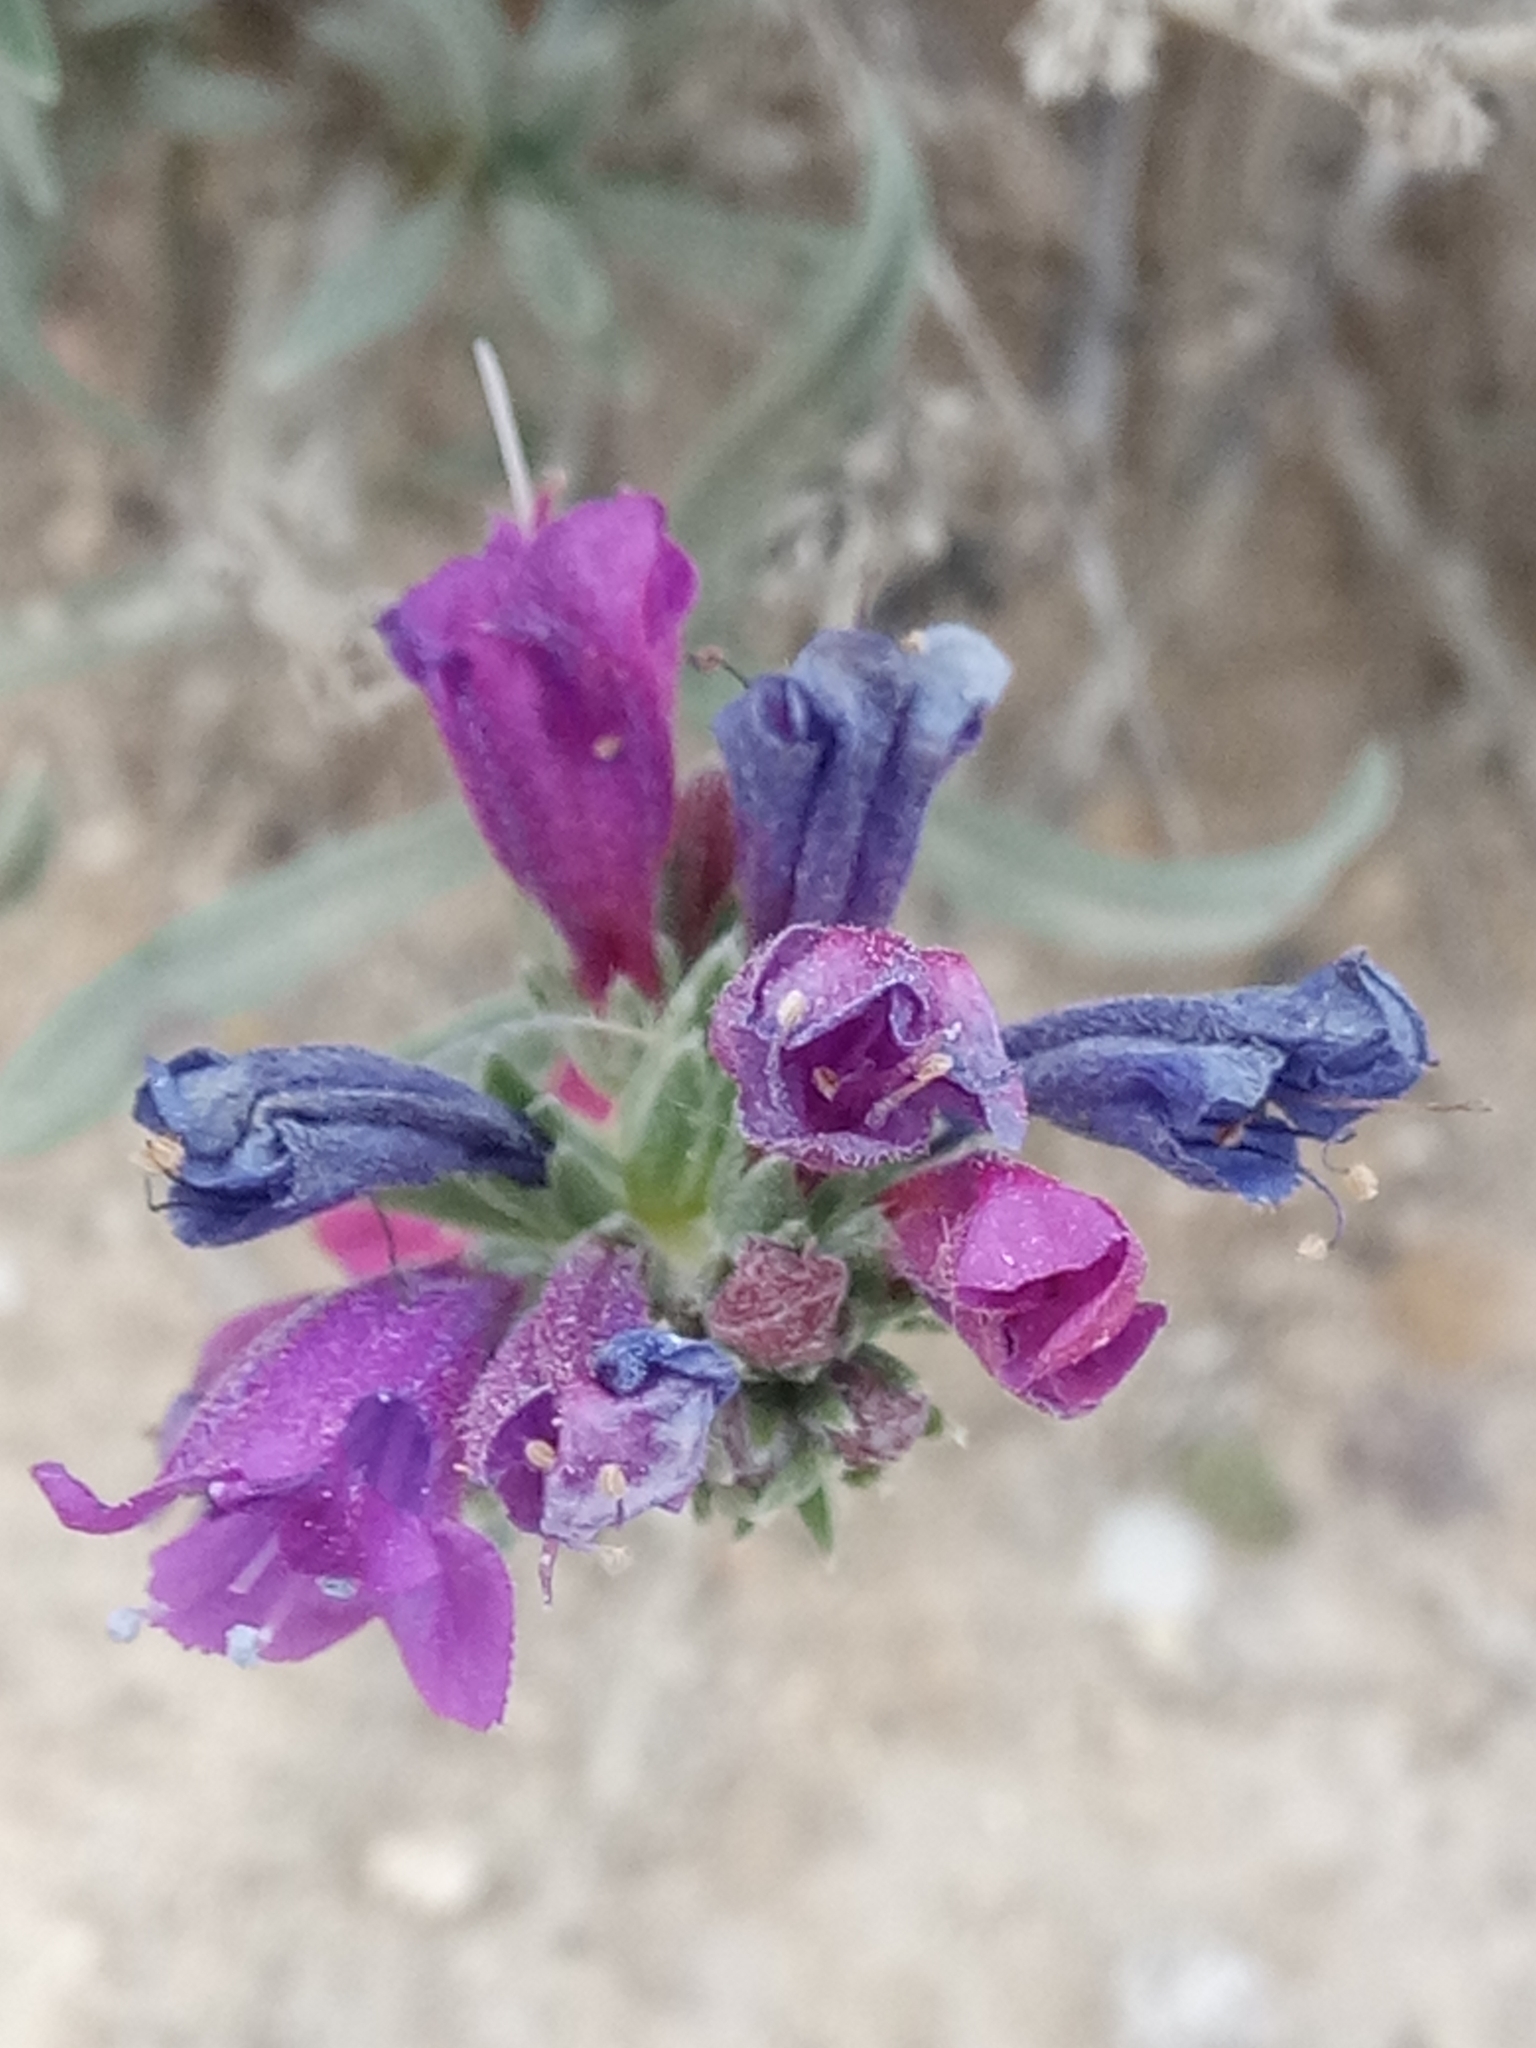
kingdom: Plantae
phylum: Tracheophyta
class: Magnoliopsida
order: Boraginales
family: Boraginaceae
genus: Echium
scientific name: Echium suffruticosum
